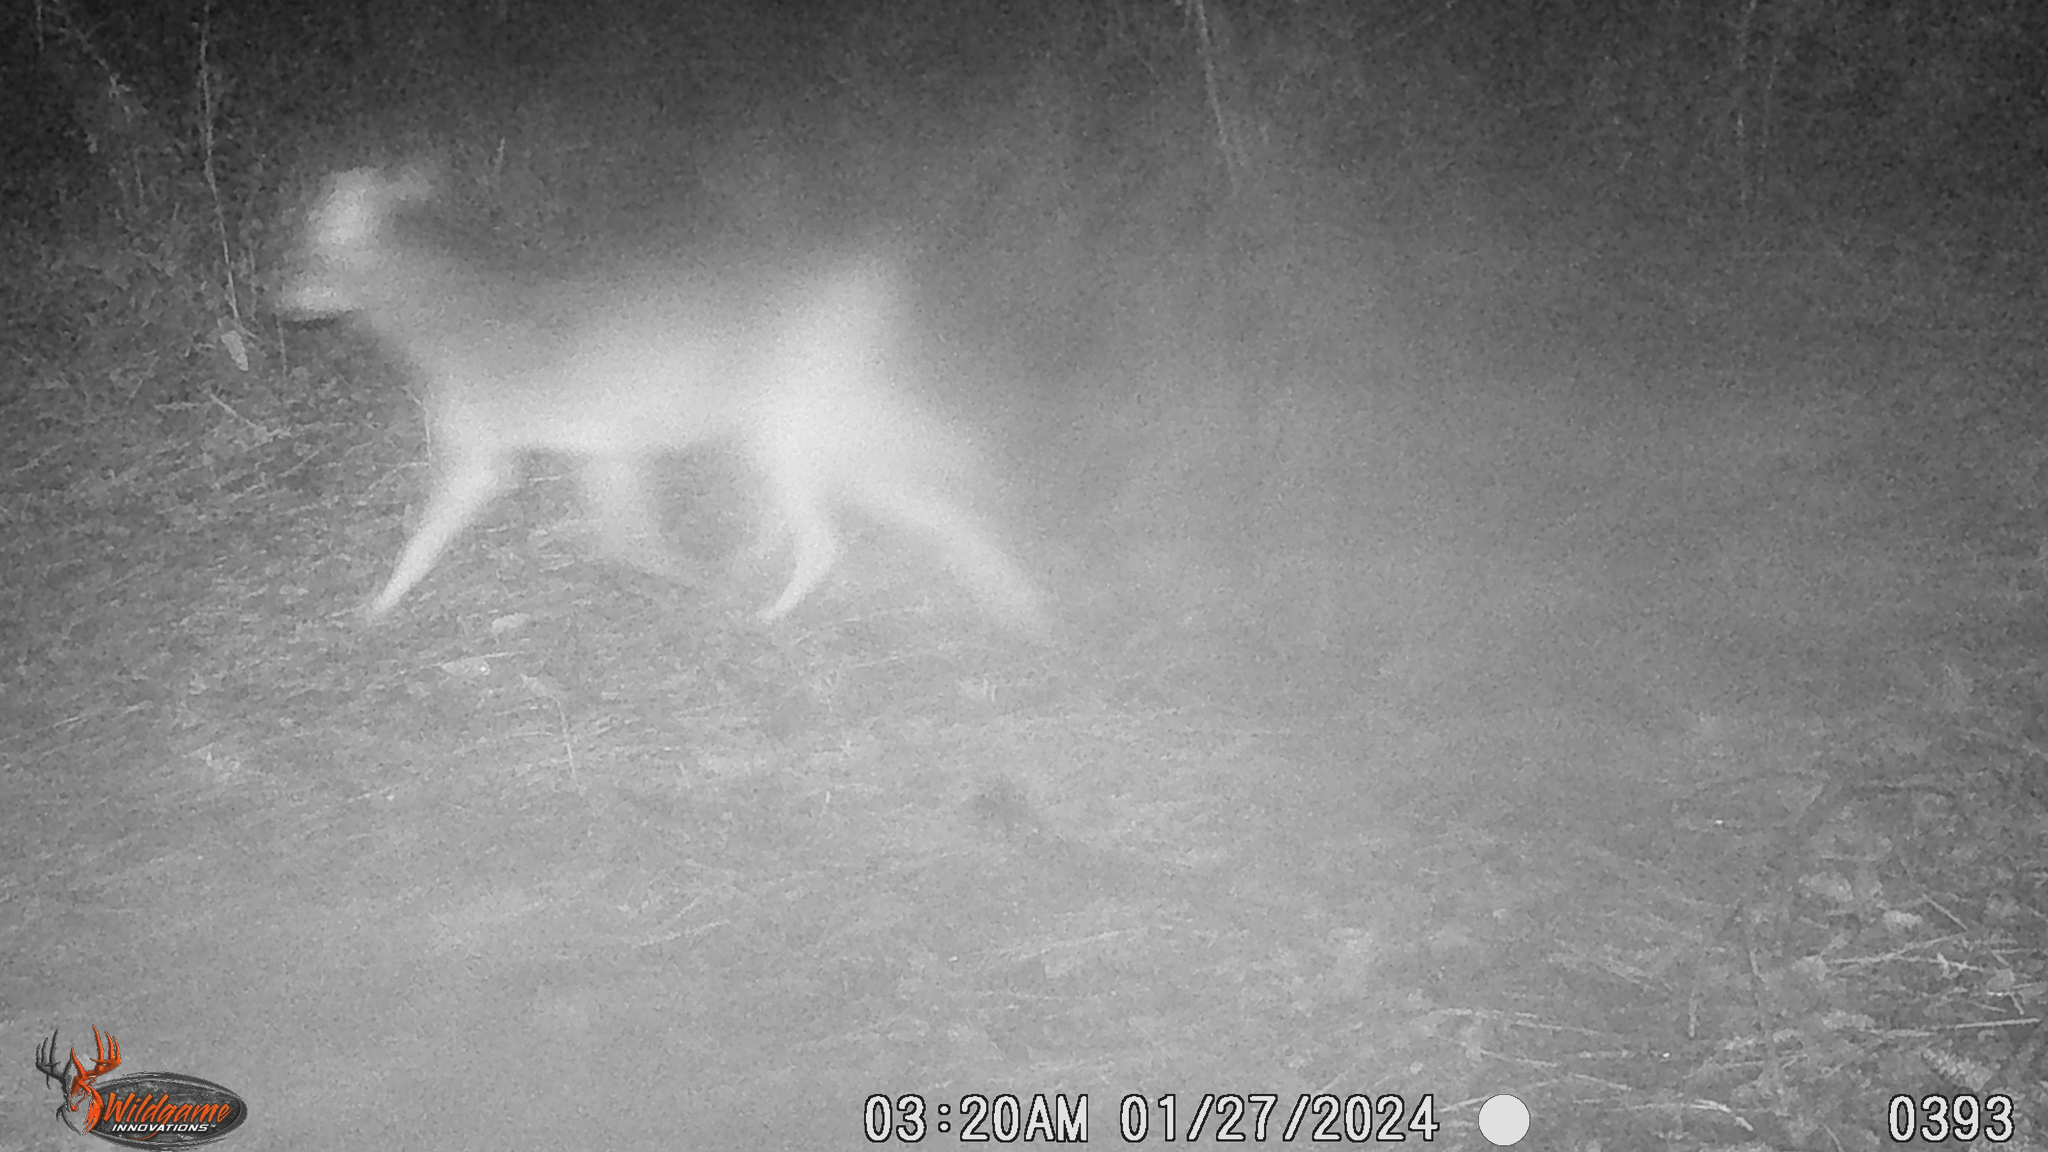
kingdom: Animalia
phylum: Chordata
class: Mammalia
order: Carnivora
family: Canidae
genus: Canis
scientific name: Canis latrans
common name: Coyote
